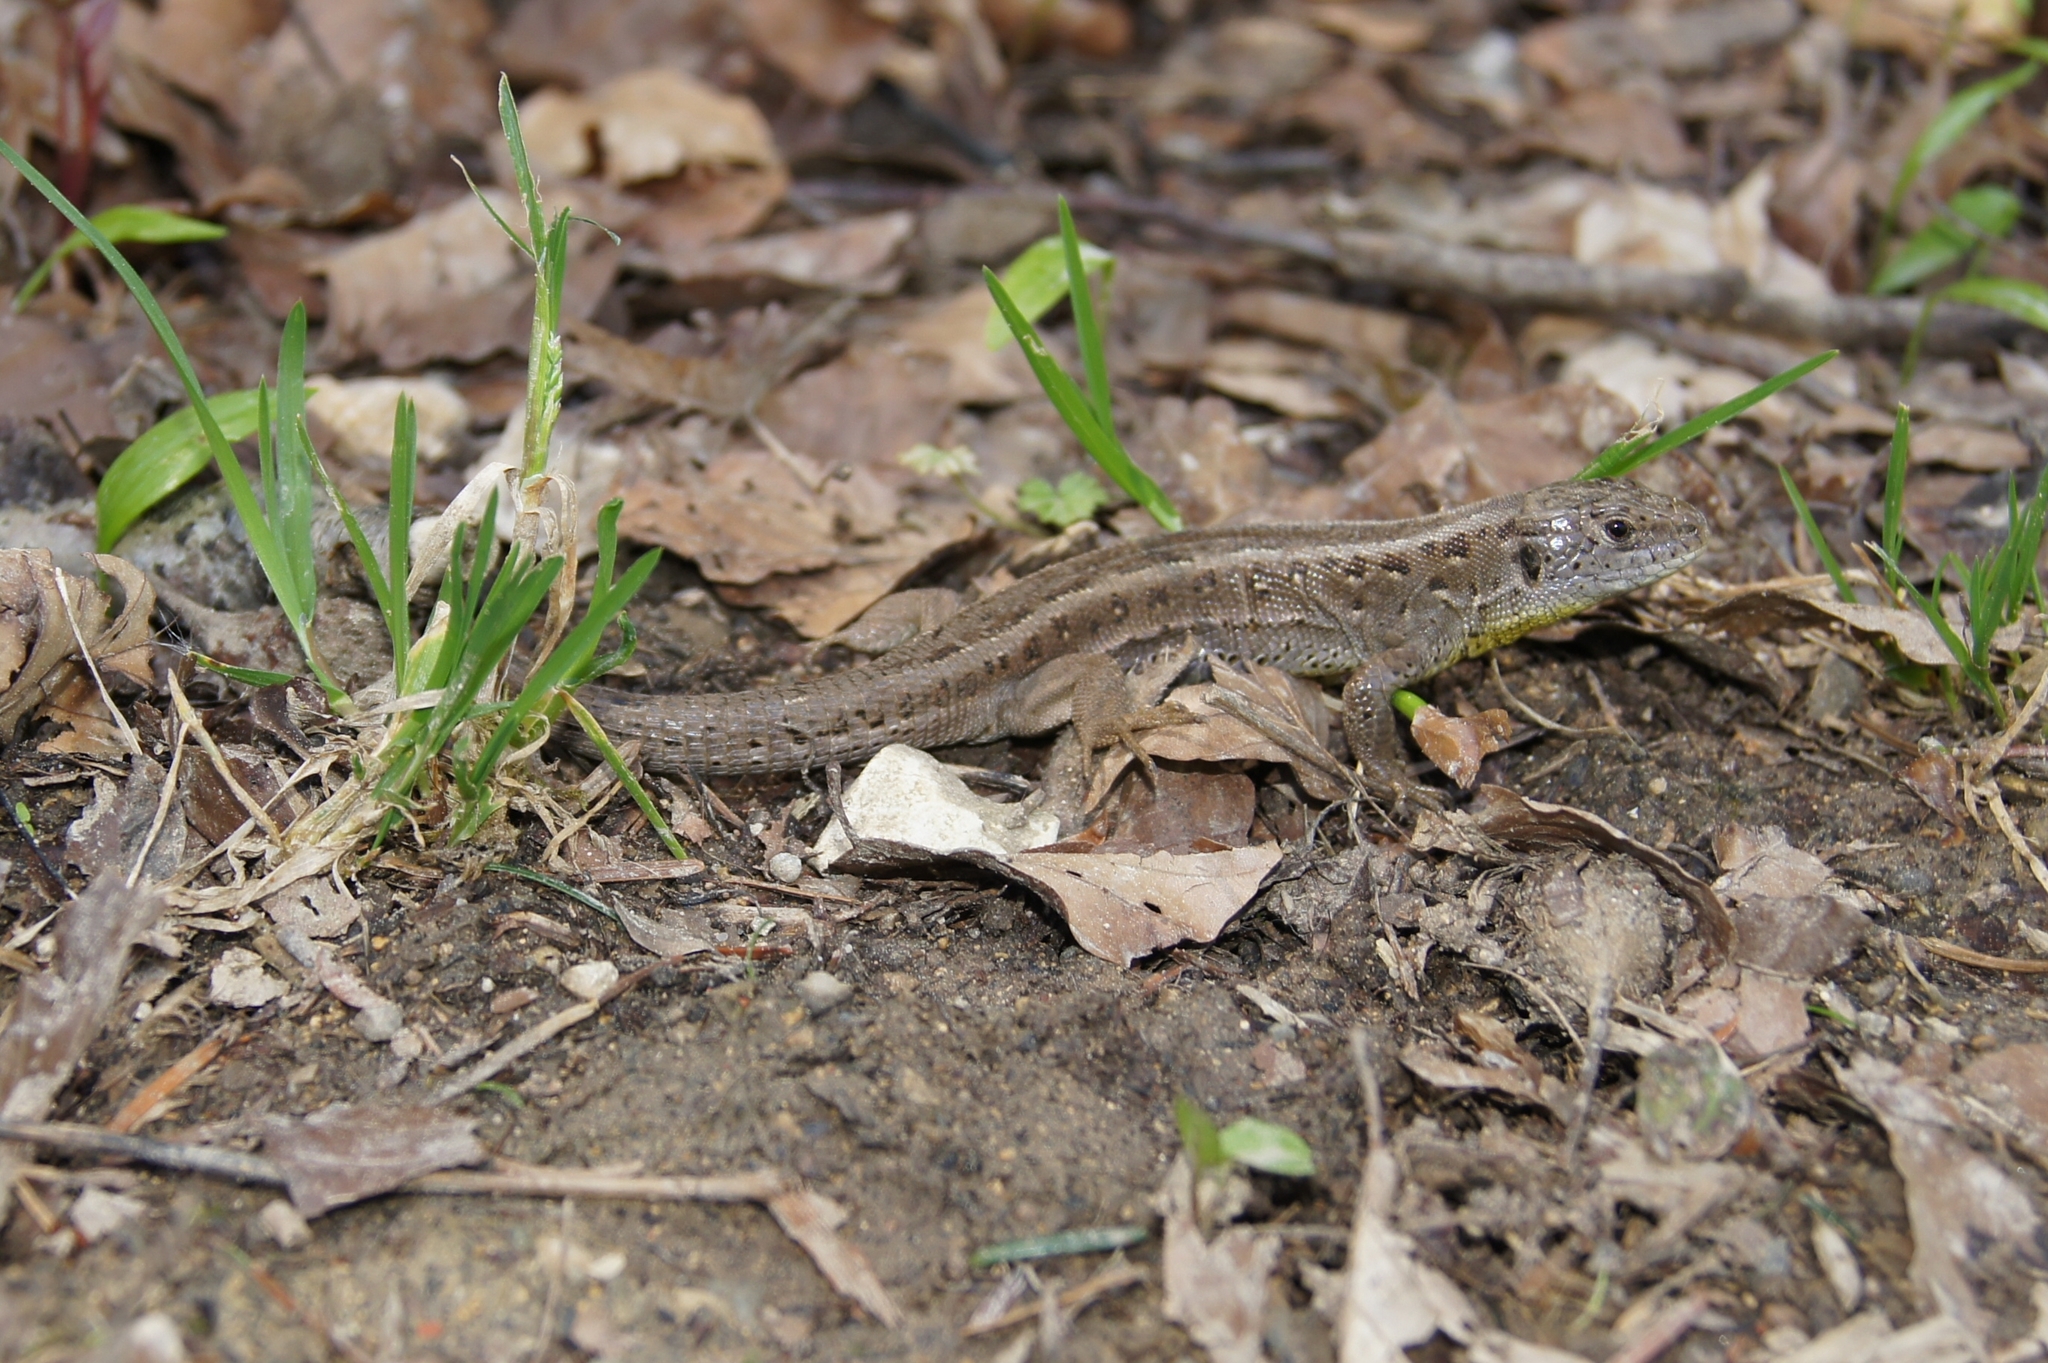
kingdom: Animalia
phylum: Chordata
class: Squamata
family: Lacertidae
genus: Lacerta
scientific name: Lacerta agilis
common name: Sand lizard
